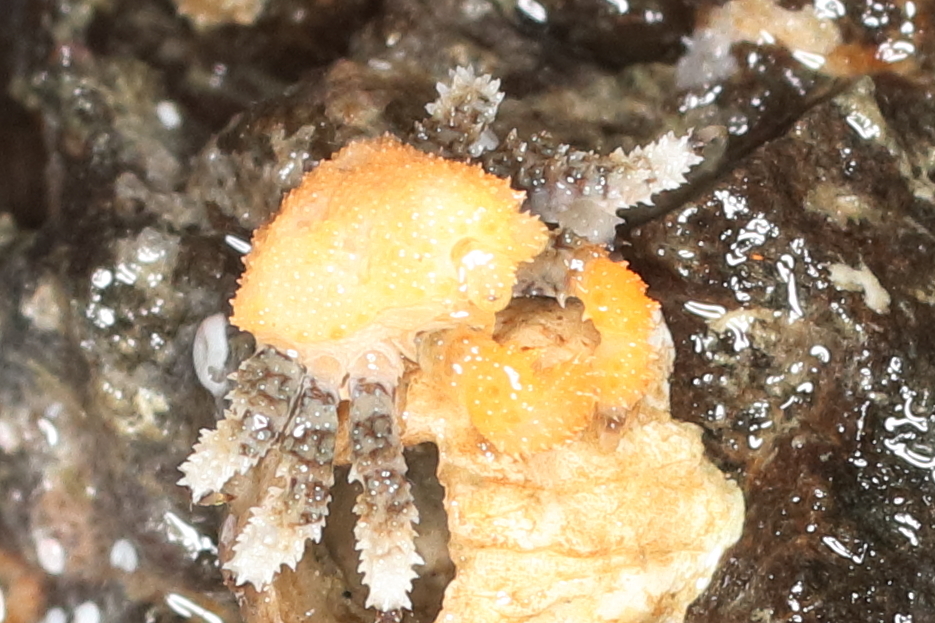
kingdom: Animalia
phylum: Arthropoda
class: Malacostraca
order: Decapoda
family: Lithodidae
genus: Phyllolithodes
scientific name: Phyllolithodes papillosus
